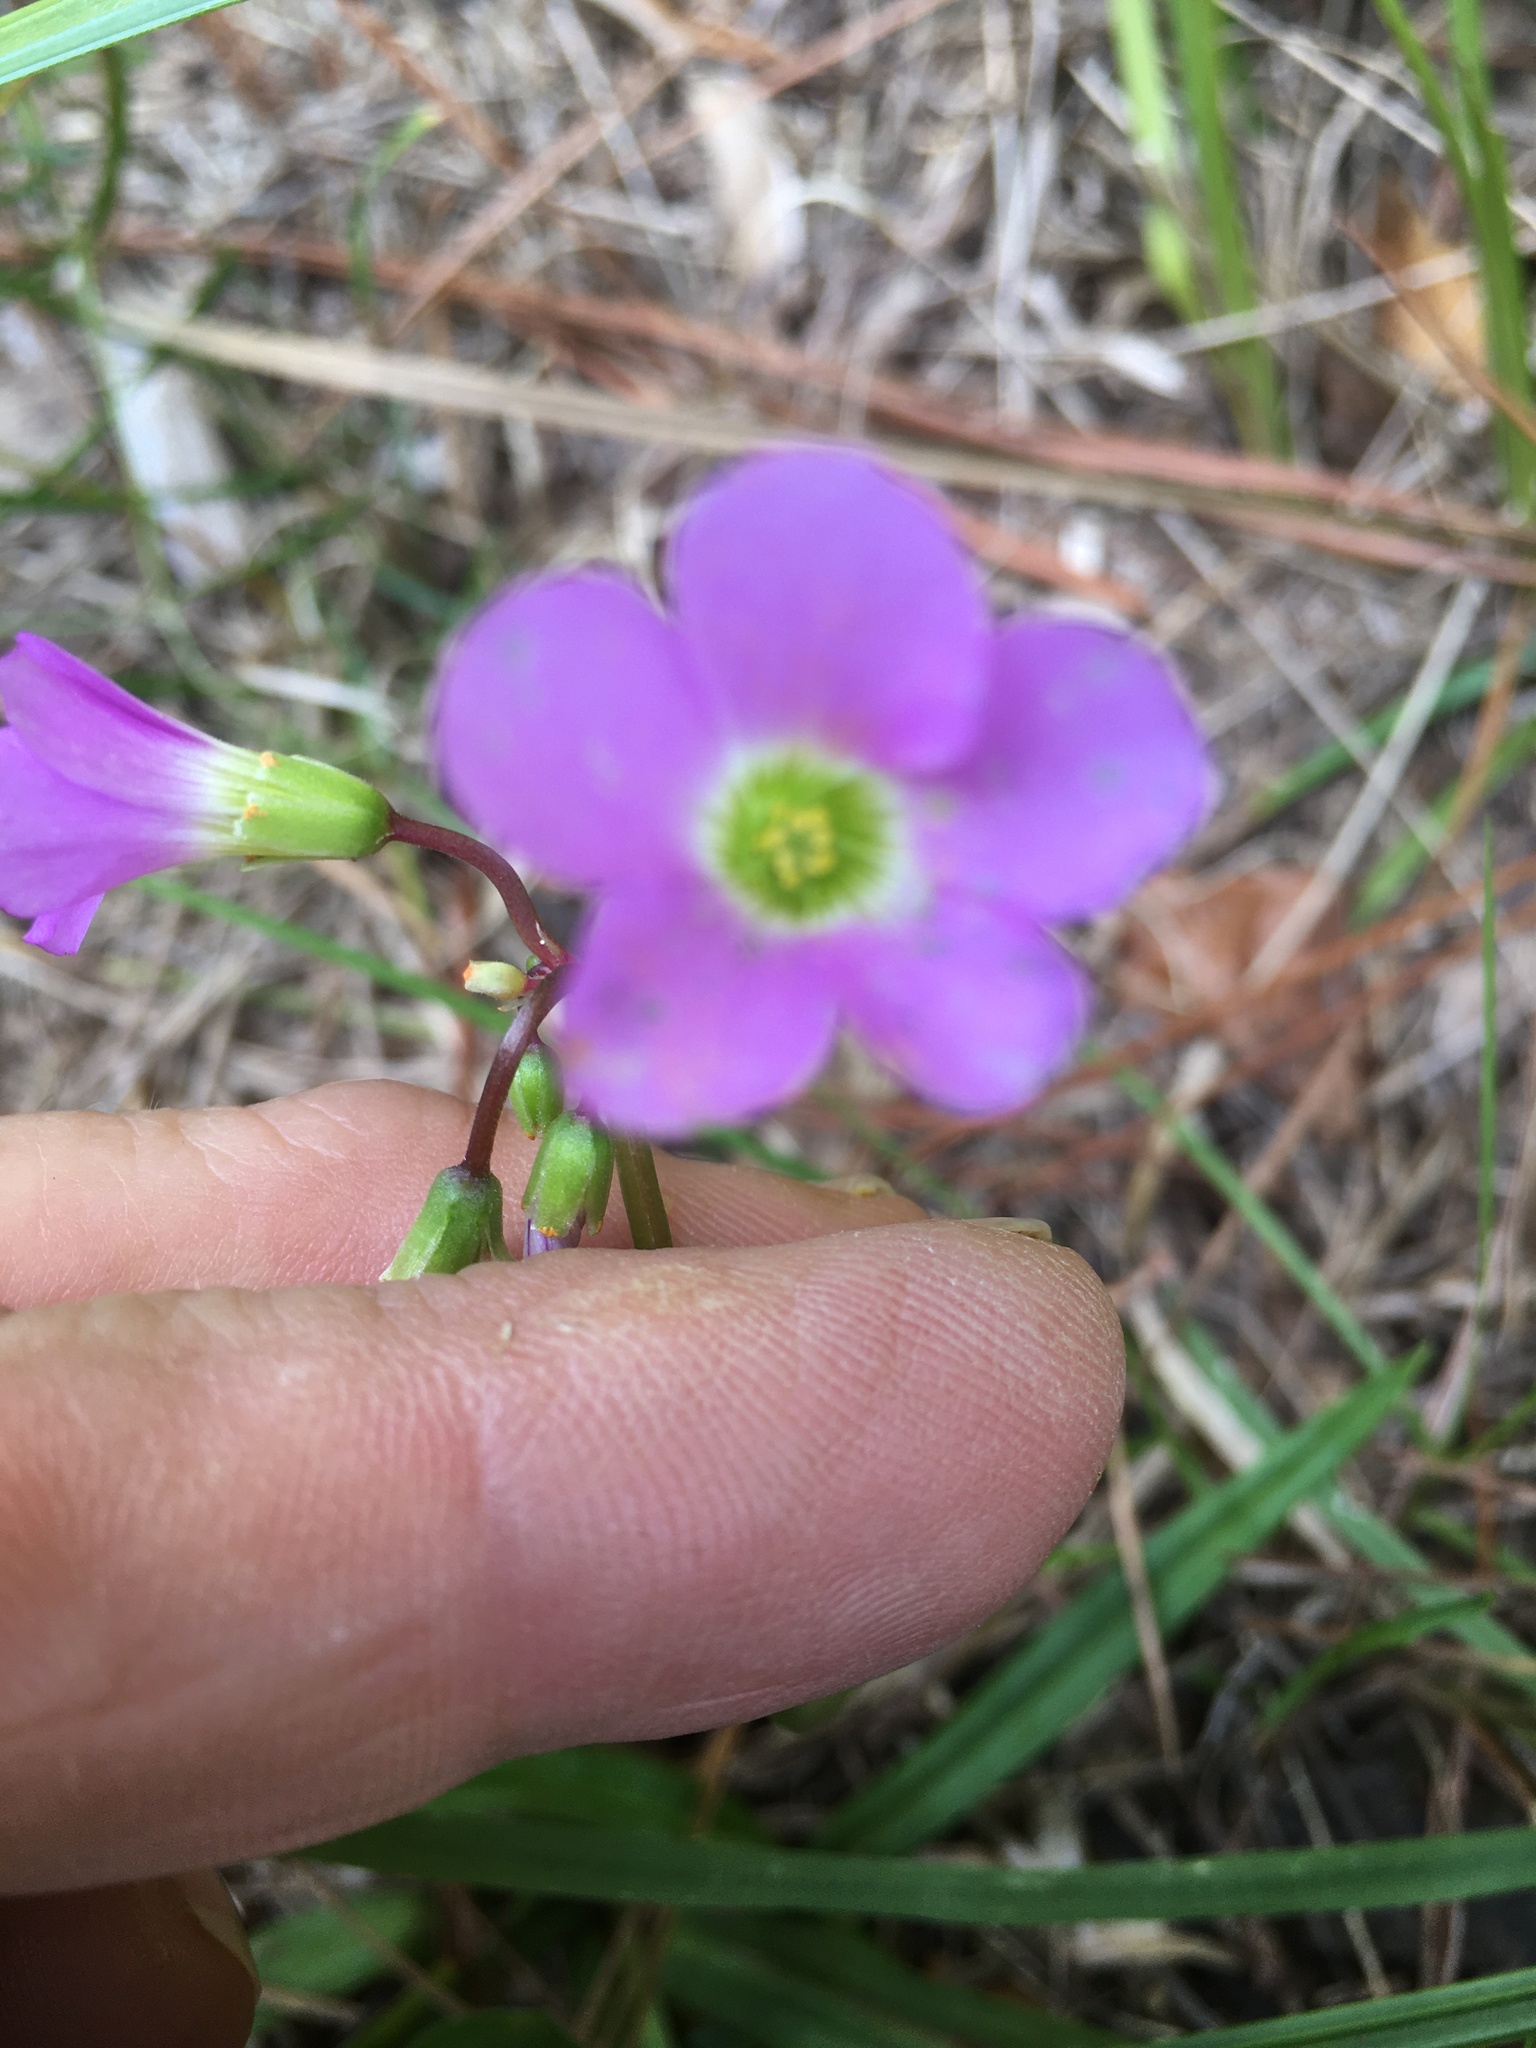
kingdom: Plantae
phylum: Tracheophyta
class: Magnoliopsida
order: Oxalidales
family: Oxalidaceae
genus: Oxalis
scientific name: Oxalis violacea
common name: Violet wood-sorrel
